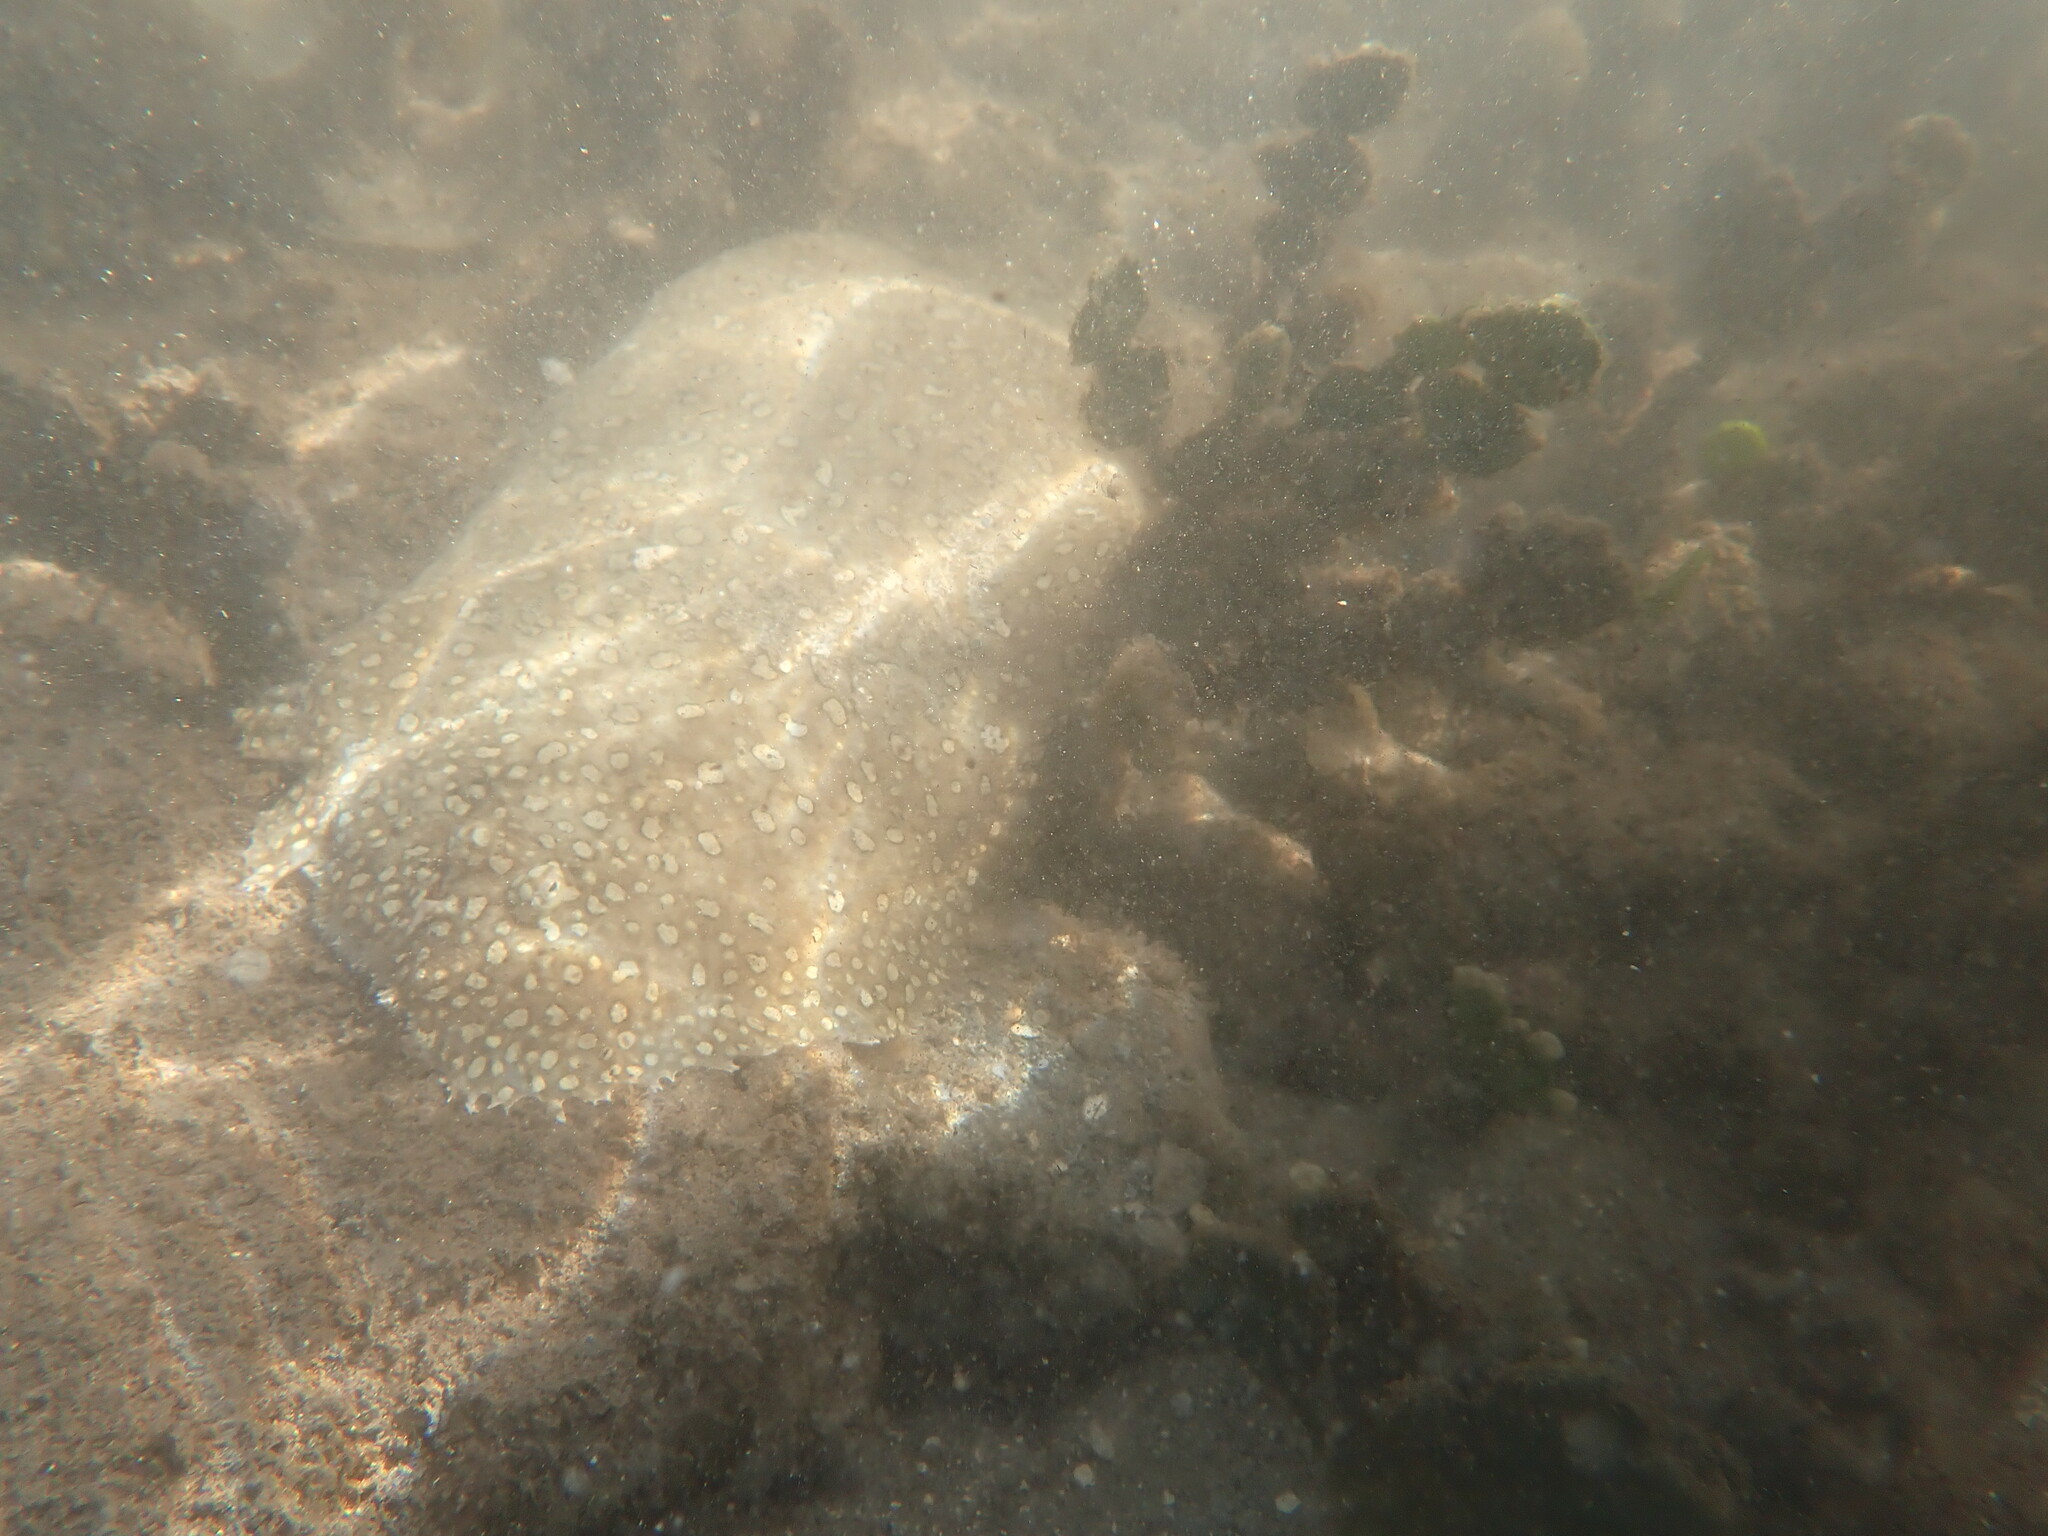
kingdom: Animalia
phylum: Chordata
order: Pleuronectiformes
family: Soleidae
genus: Pardachirus
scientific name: Pardachirus pavoninus
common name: Ocellated sole
